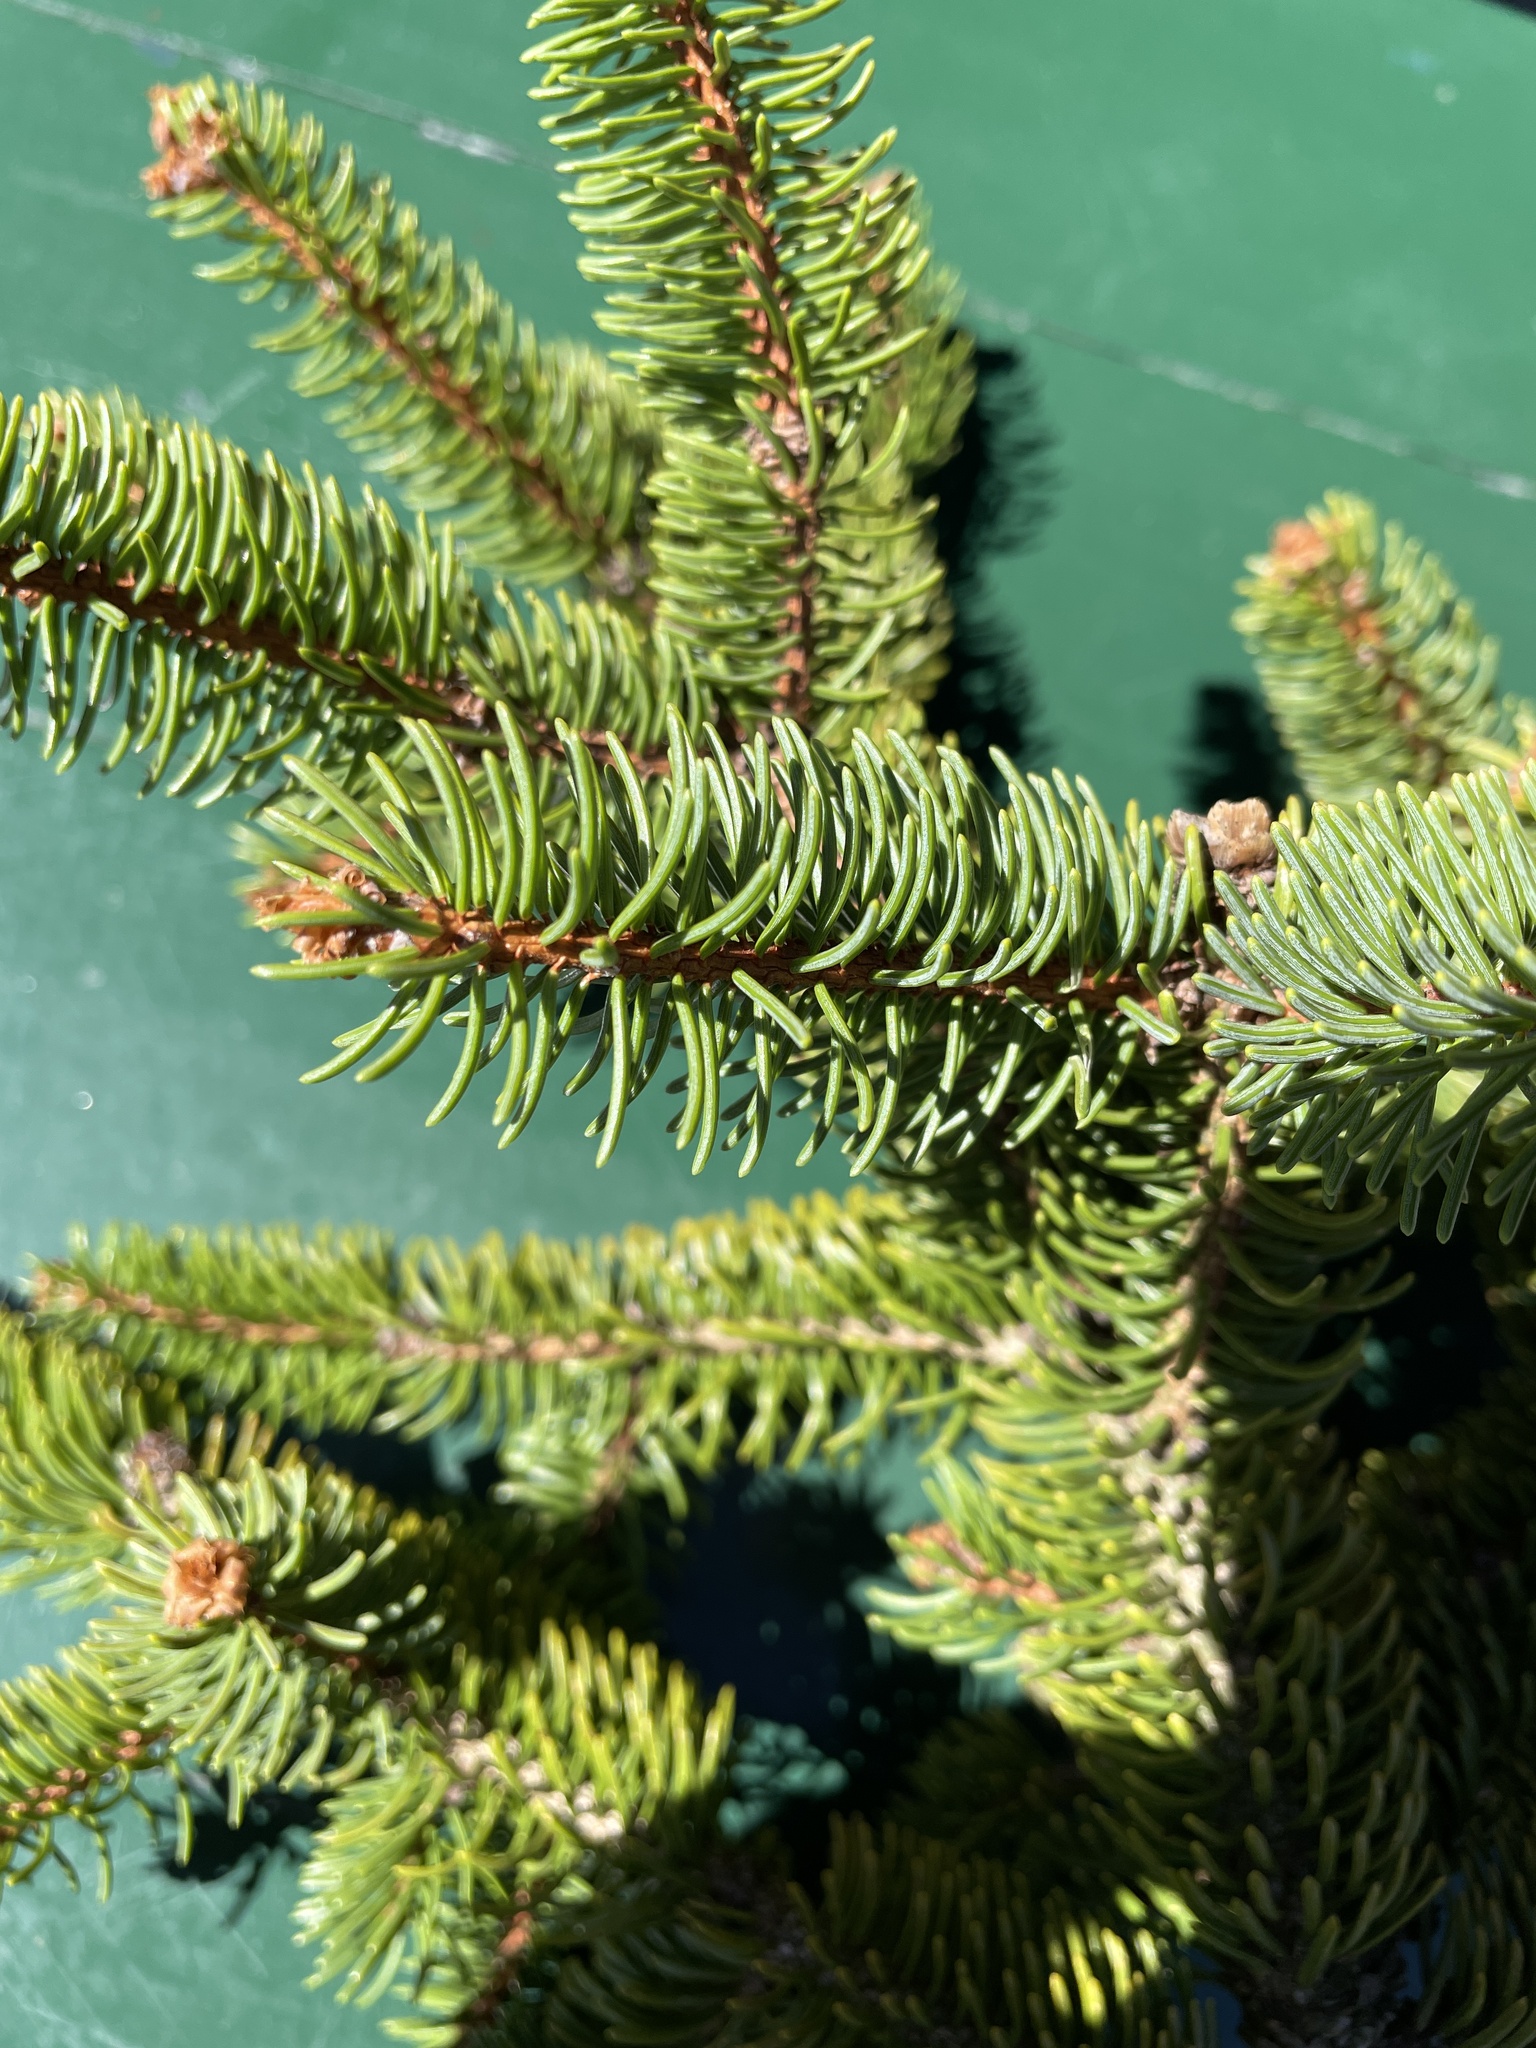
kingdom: Plantae
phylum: Tracheophyta
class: Pinopsida
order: Pinales
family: Pinaceae
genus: Picea
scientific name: Picea glauca
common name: White spruce
